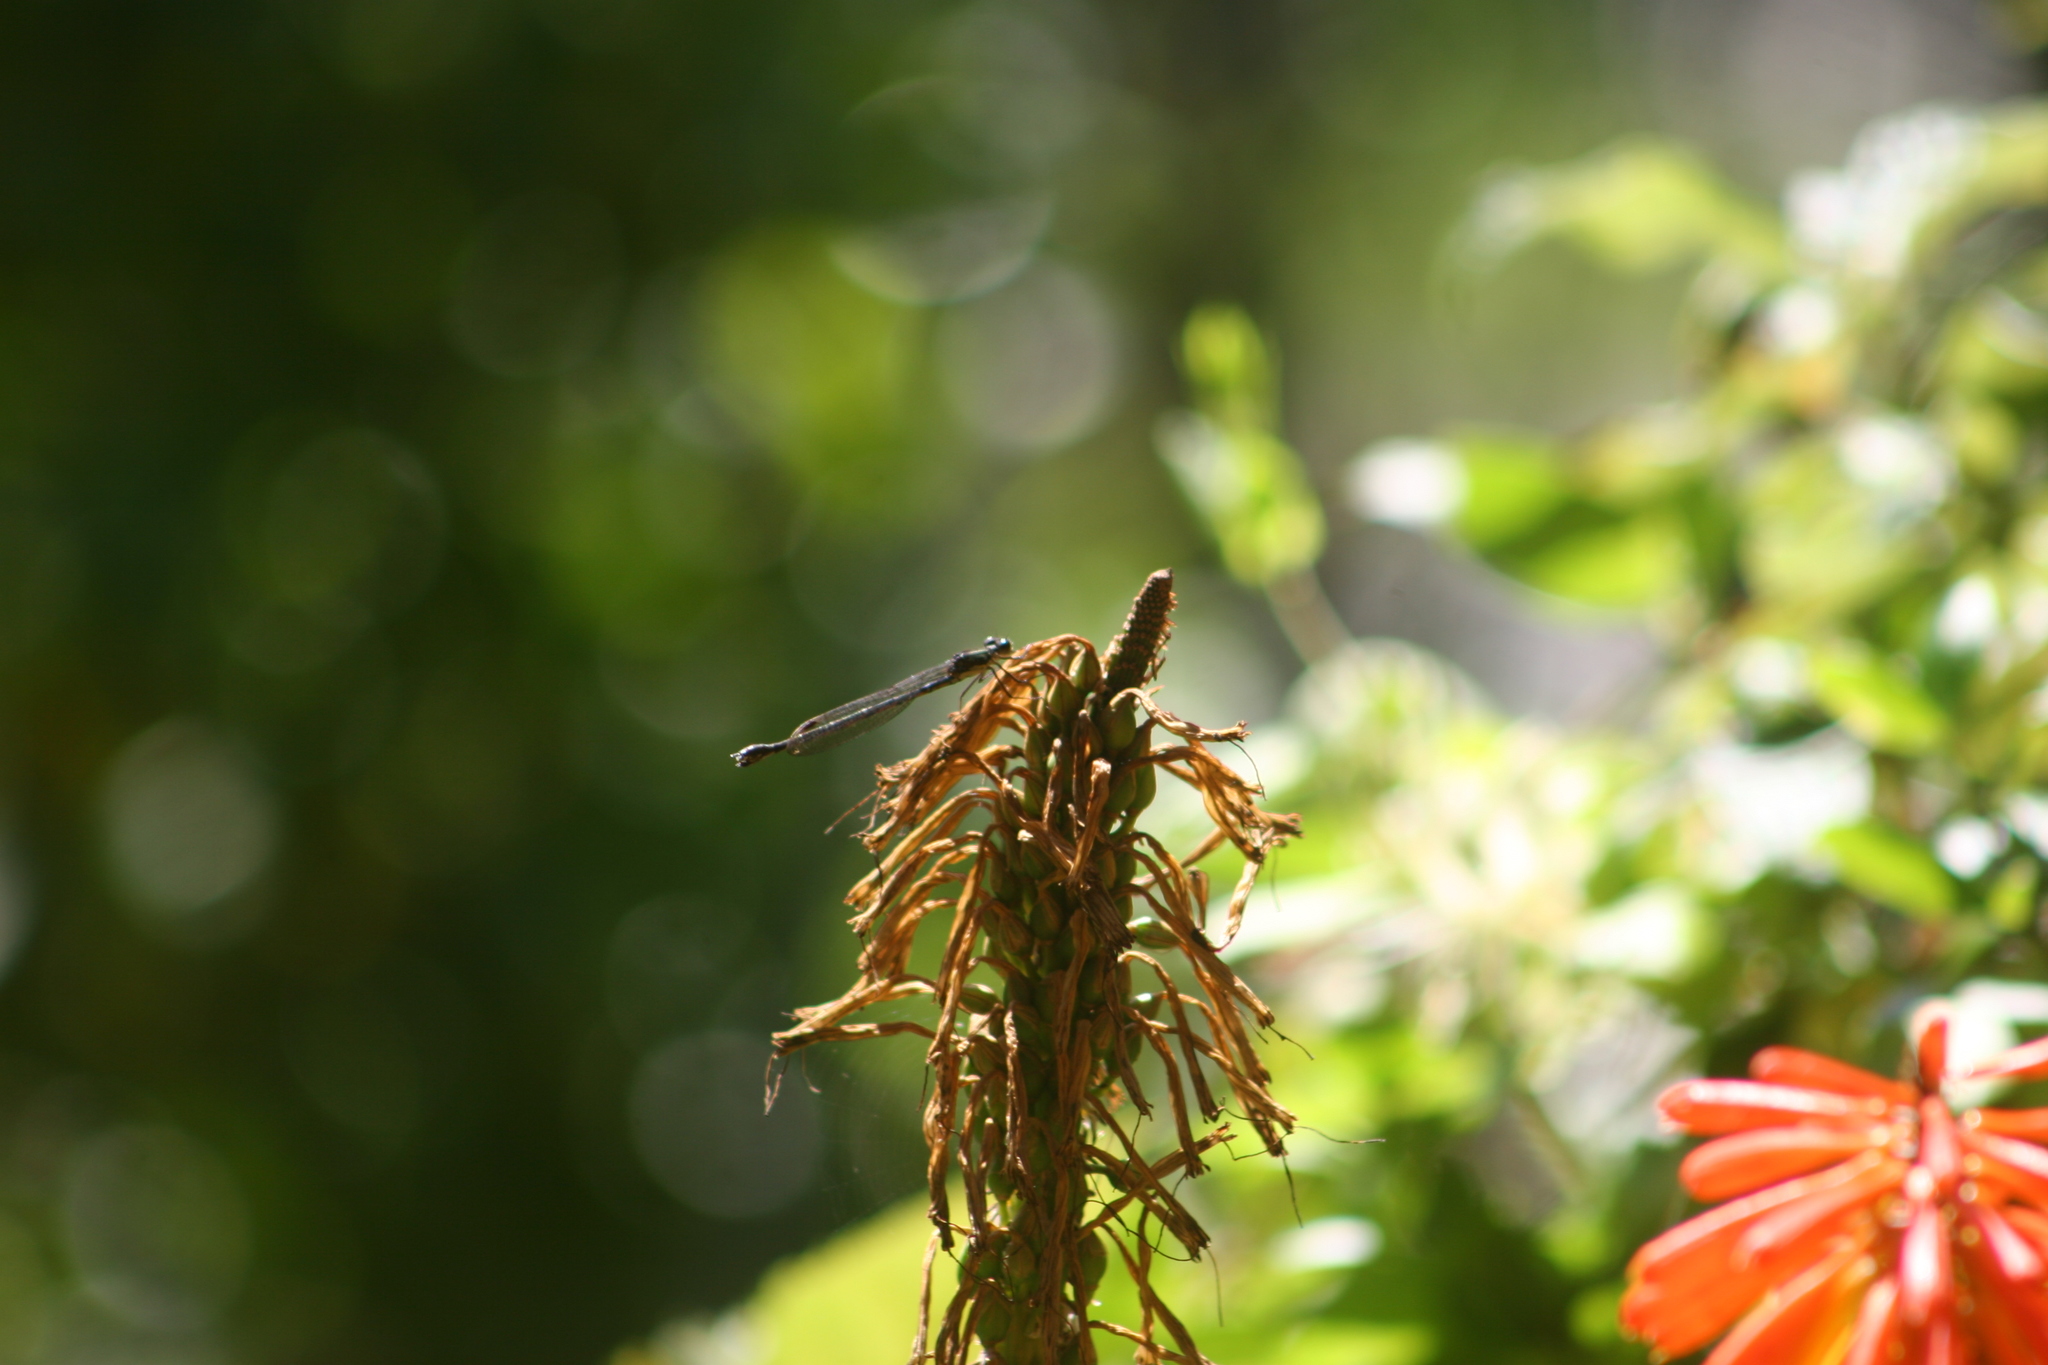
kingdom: Animalia
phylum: Arthropoda
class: Insecta
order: Odonata
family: Lestidae
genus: Austrolestes
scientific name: Austrolestes colensonis
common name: Blue damselfly
